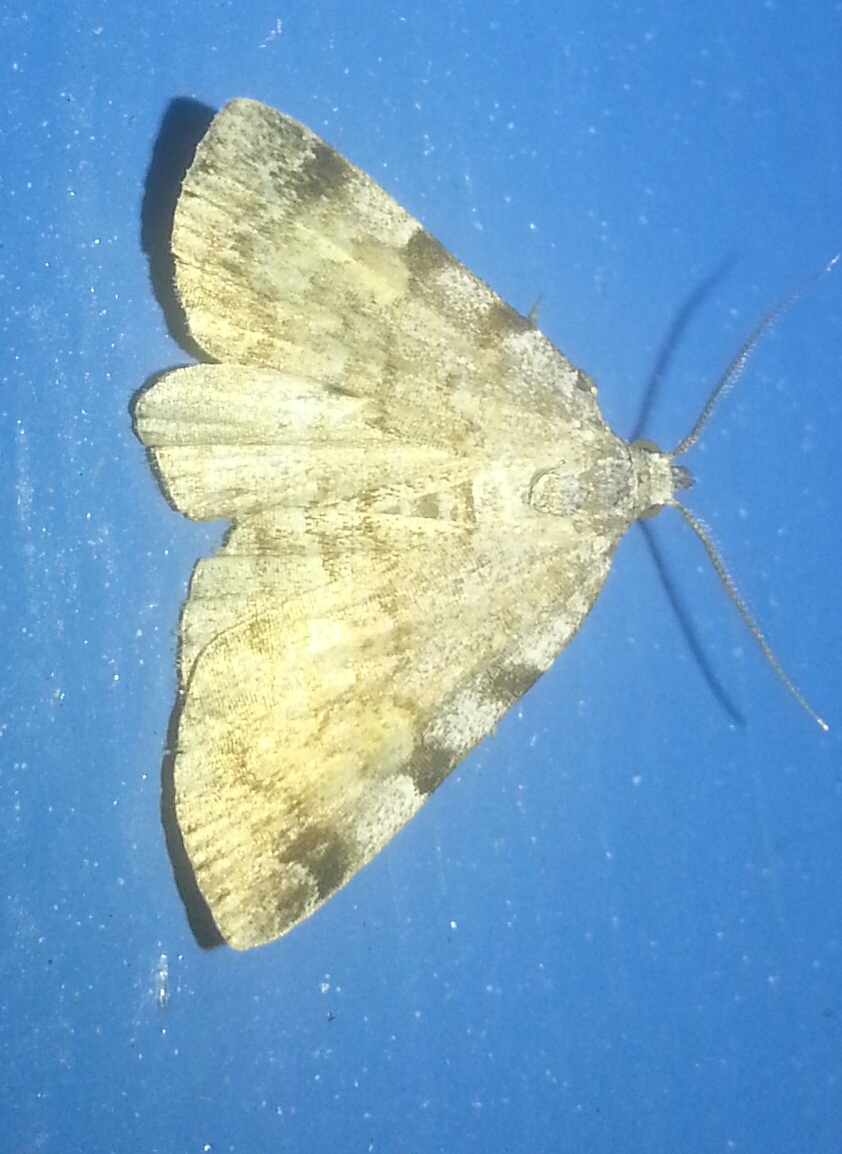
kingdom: Animalia
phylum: Arthropoda
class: Insecta
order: Lepidoptera
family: Erebidae
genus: Idia
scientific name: Idia americalis
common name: American idia moth
